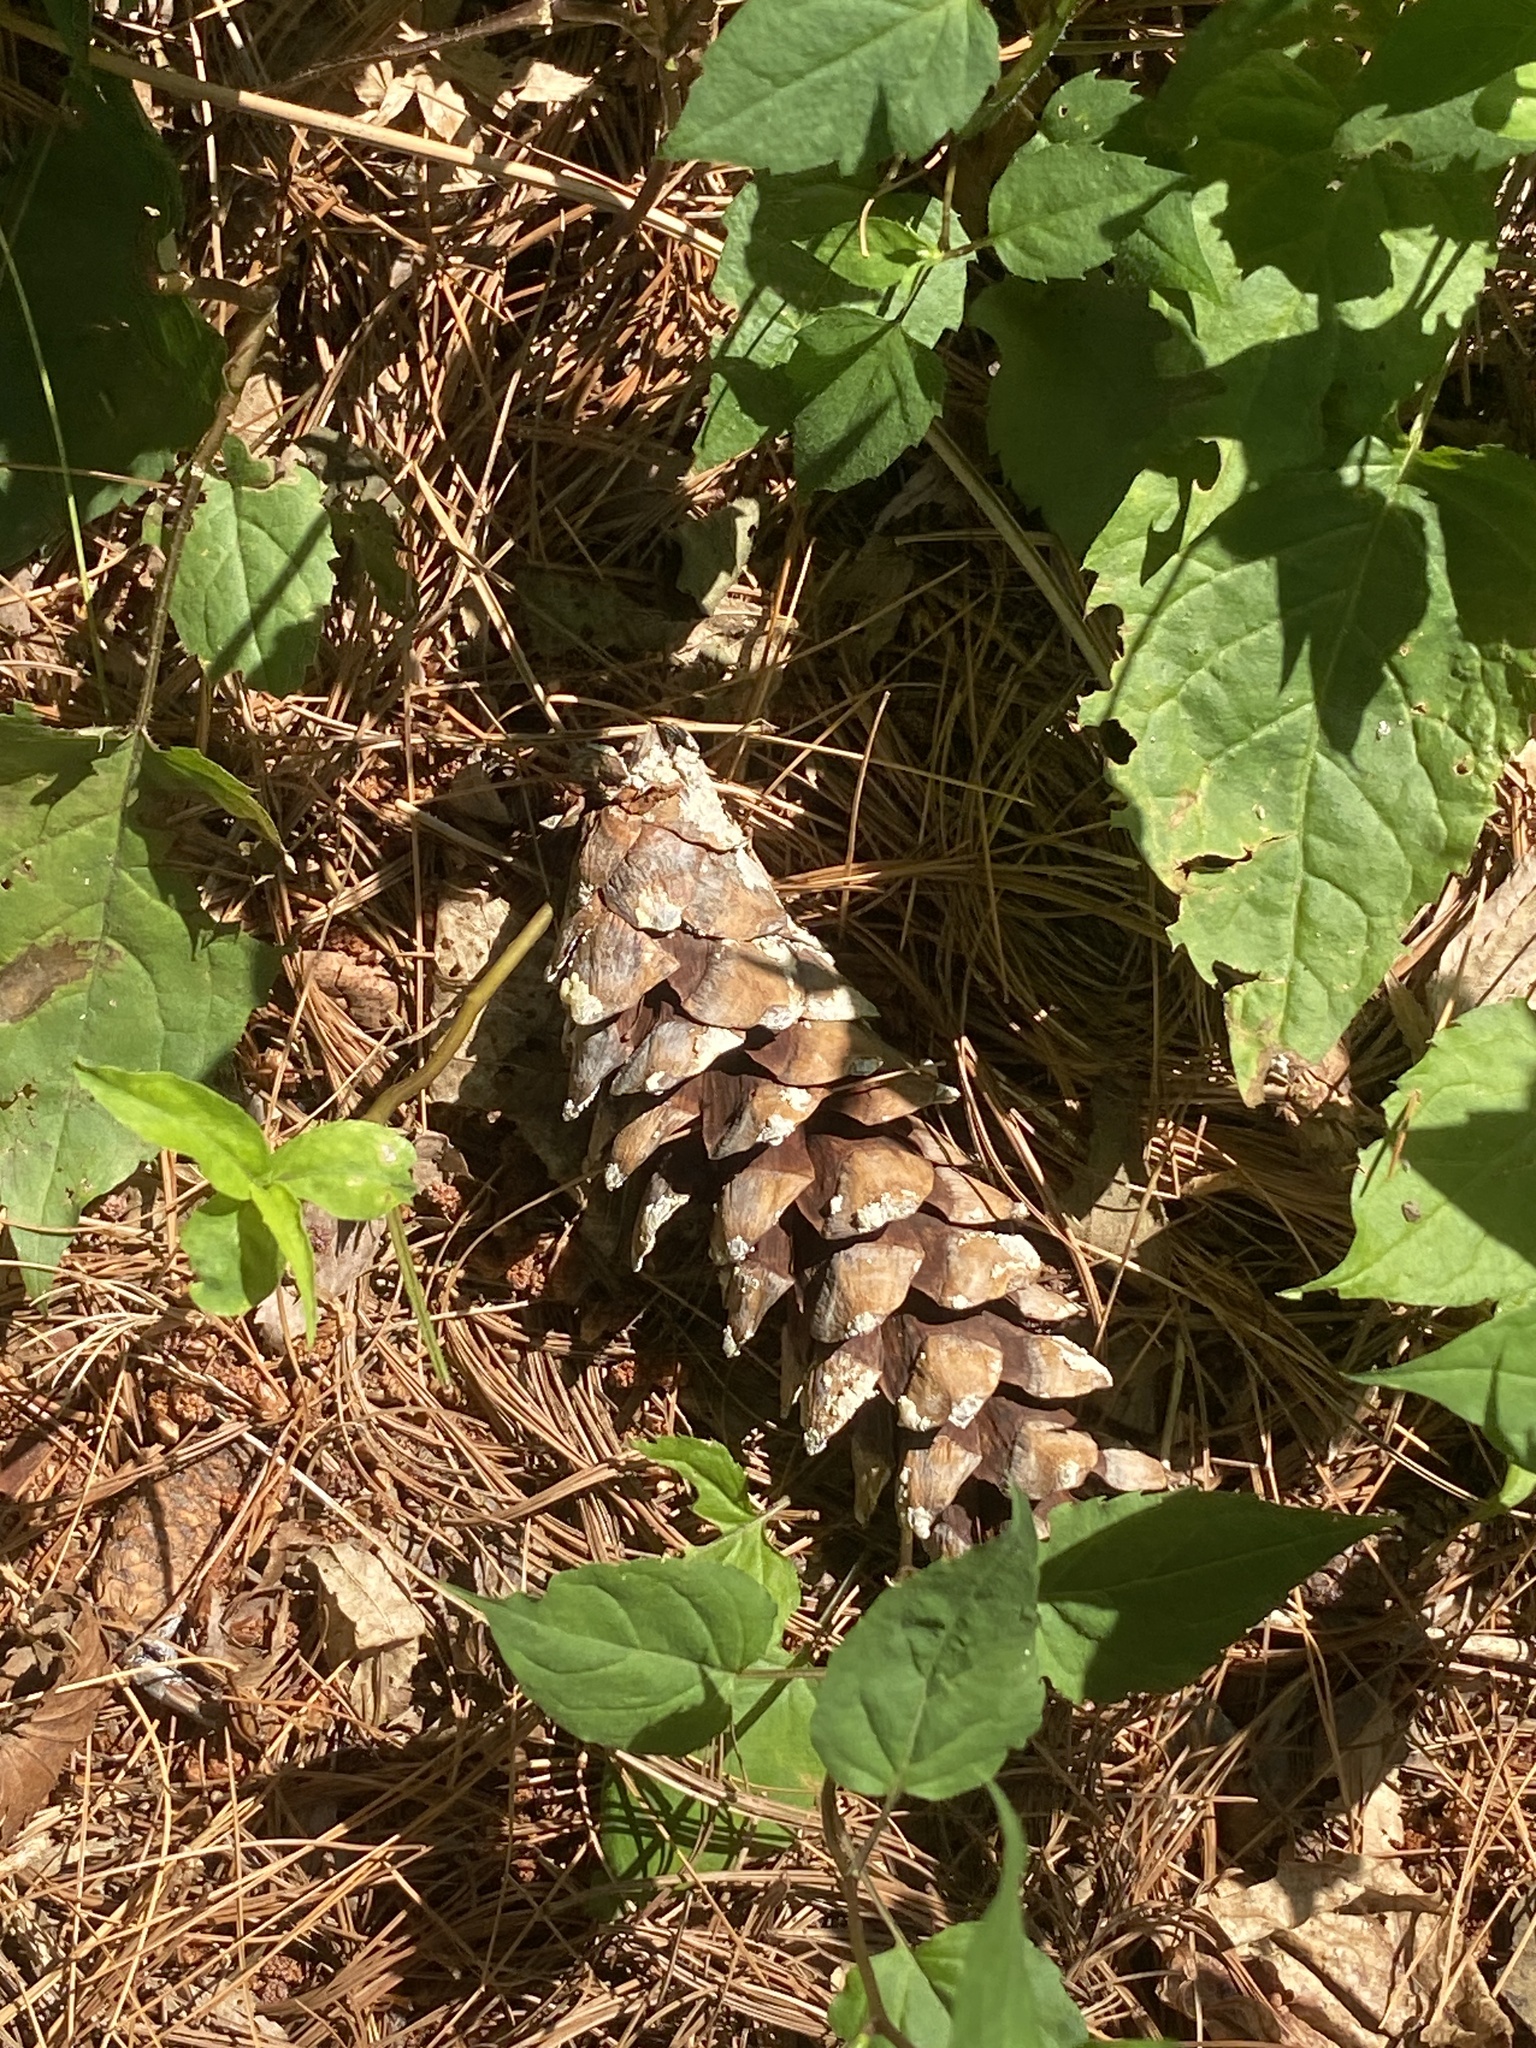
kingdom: Plantae
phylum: Tracheophyta
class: Pinopsida
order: Pinales
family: Pinaceae
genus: Pinus
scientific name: Pinus strobus
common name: Weymouth pine
